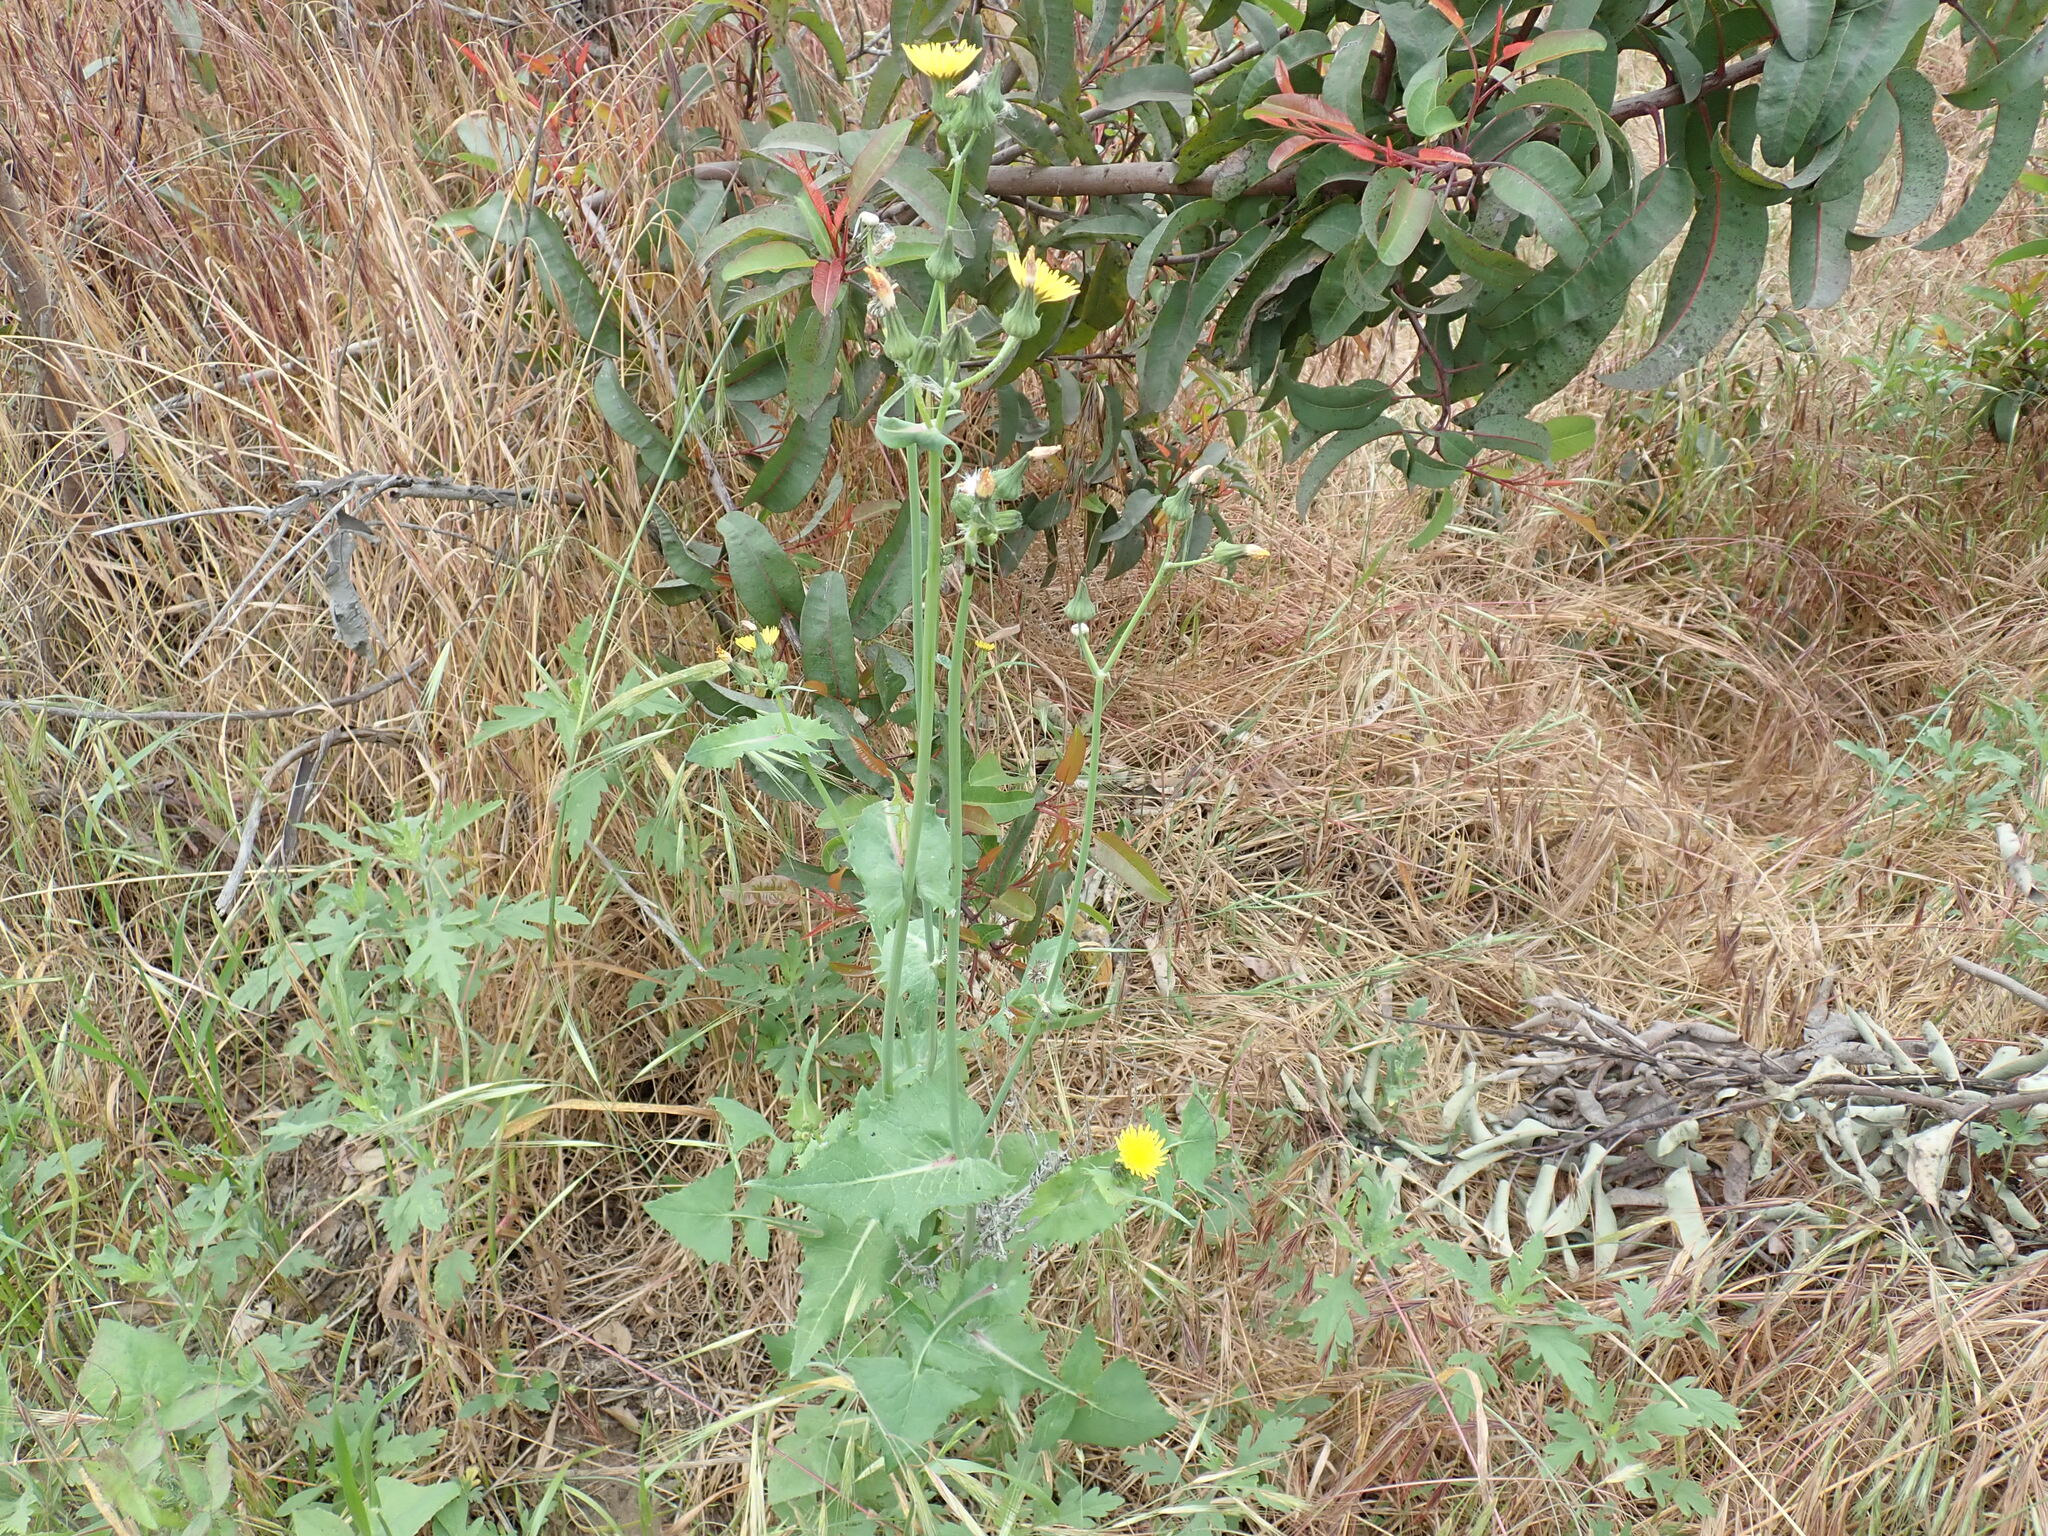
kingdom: Plantae
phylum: Tracheophyta
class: Magnoliopsida
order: Asterales
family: Asteraceae
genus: Sonchus
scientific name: Sonchus oleraceus
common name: Common sowthistle
